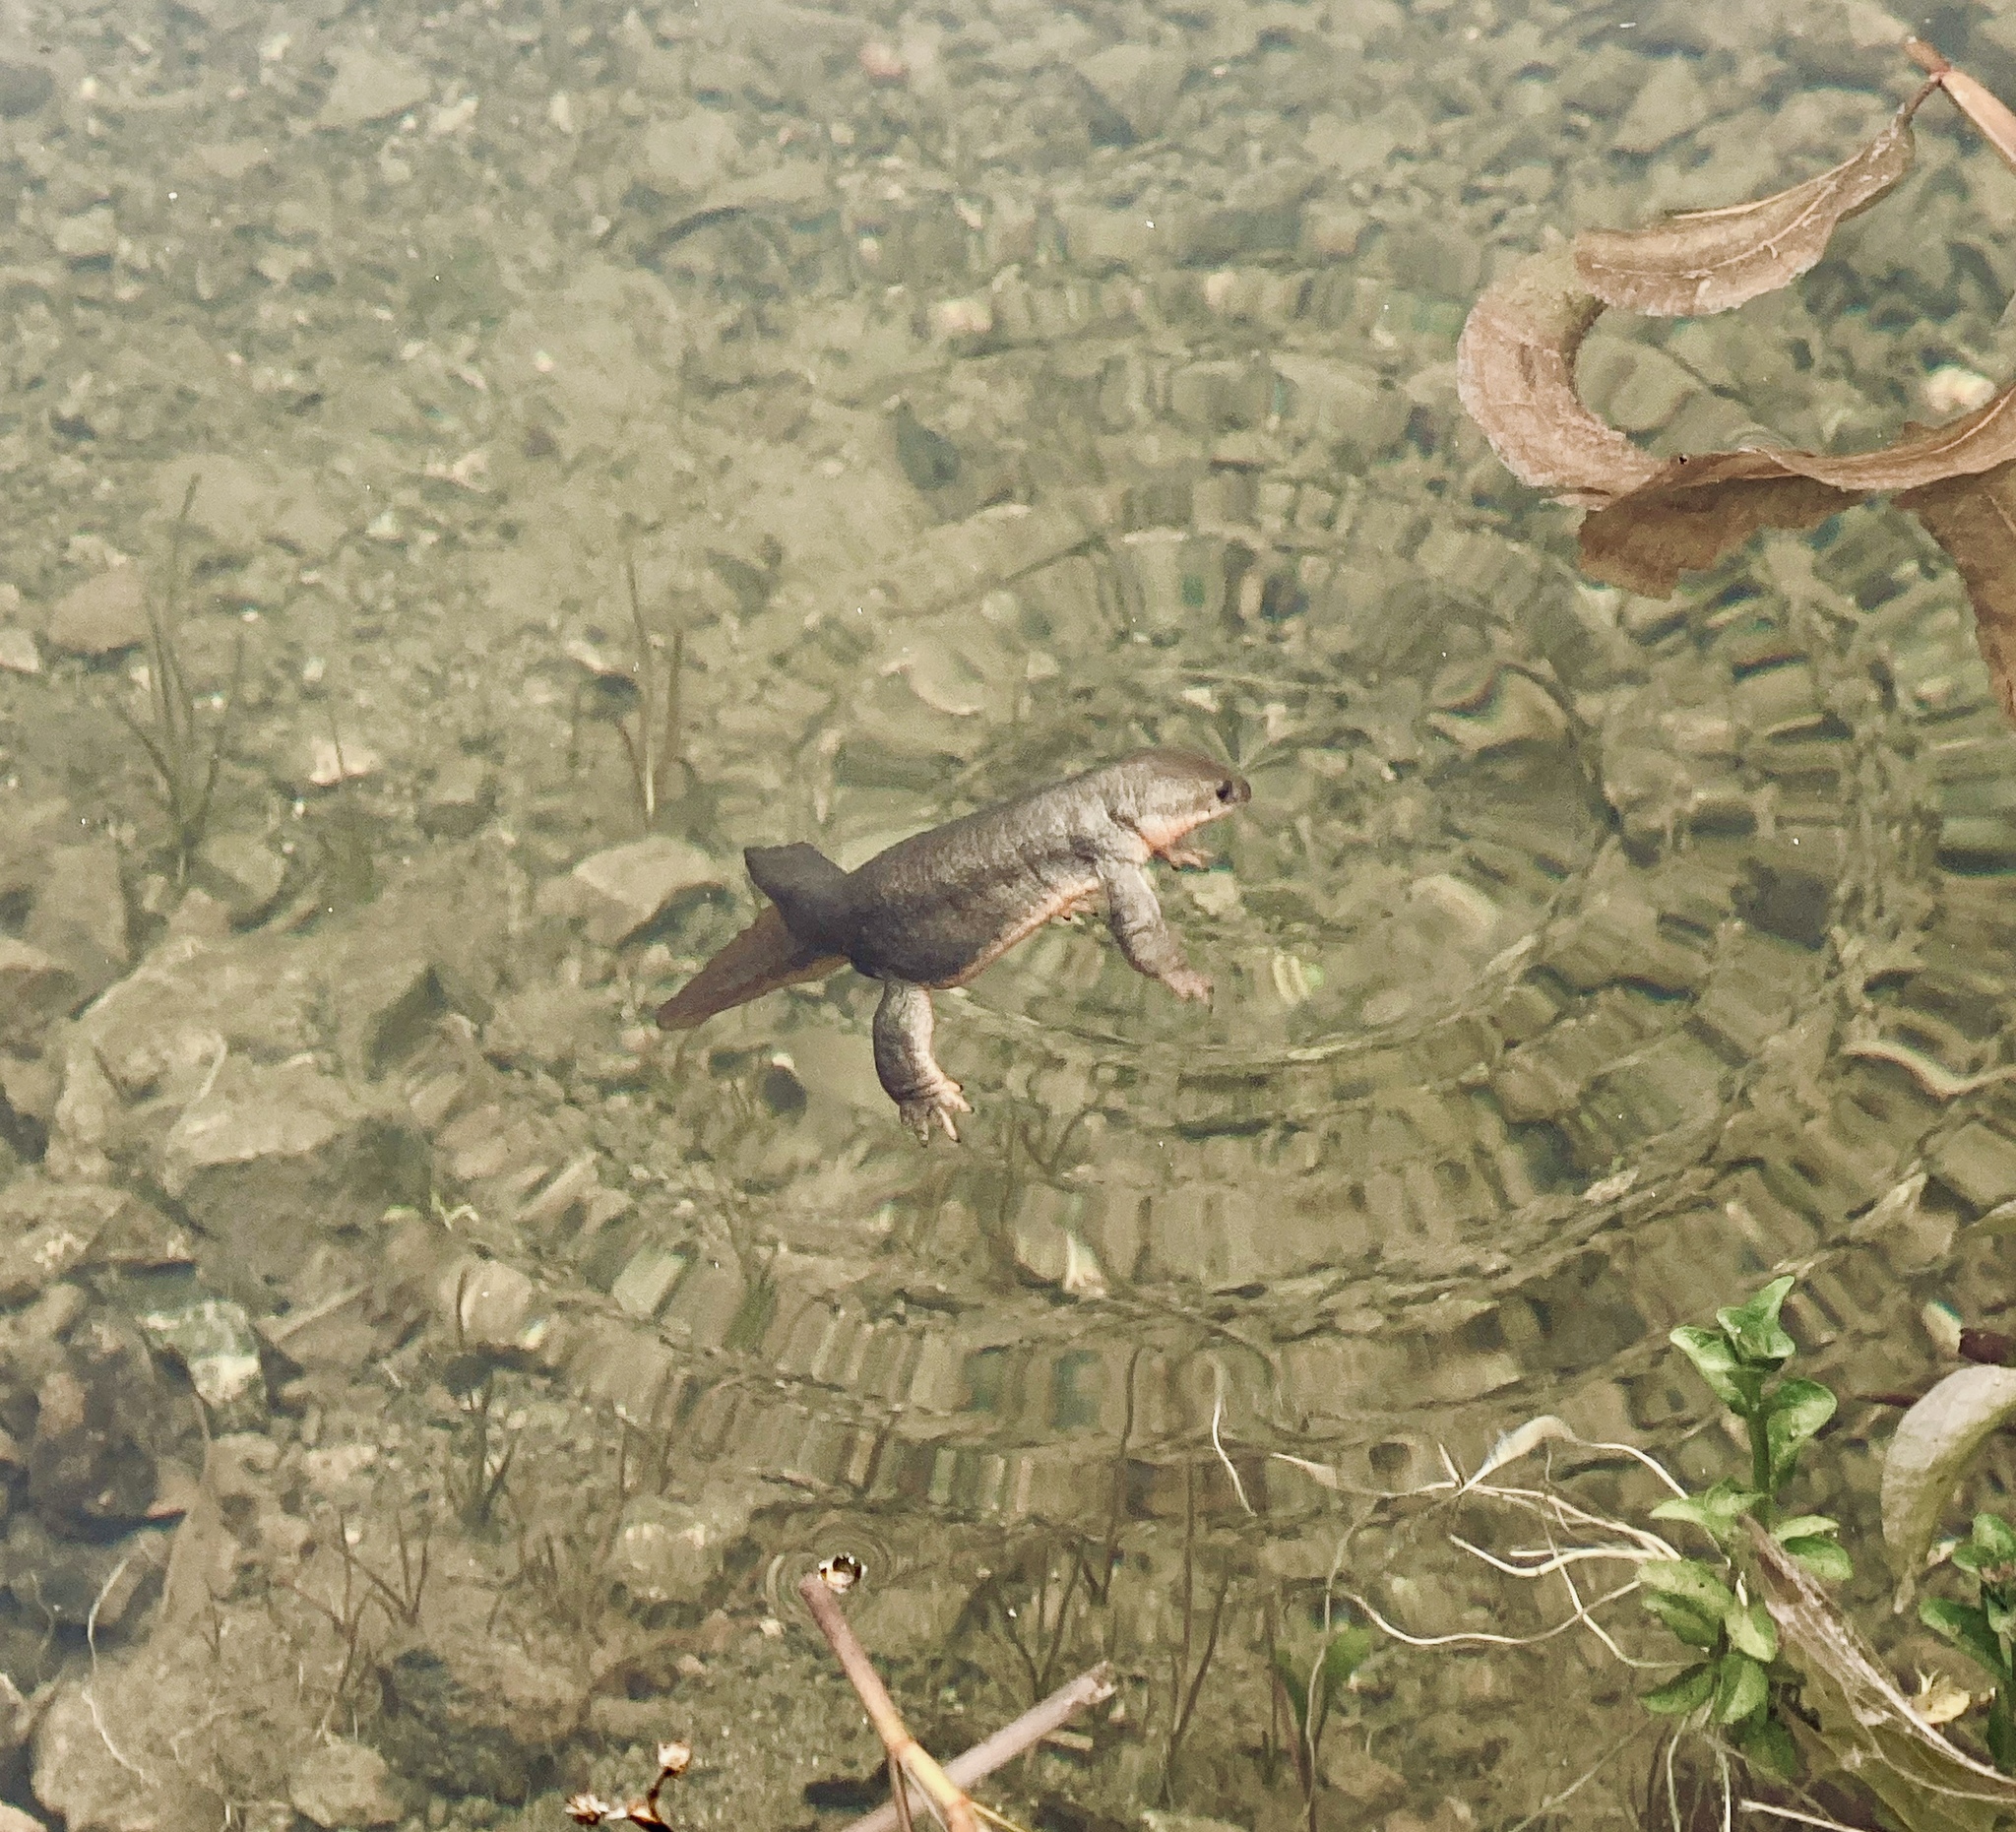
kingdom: Animalia
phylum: Chordata
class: Amphibia
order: Caudata
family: Salamandridae
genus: Taricha
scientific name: Taricha granulosa
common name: Roughskin newt
